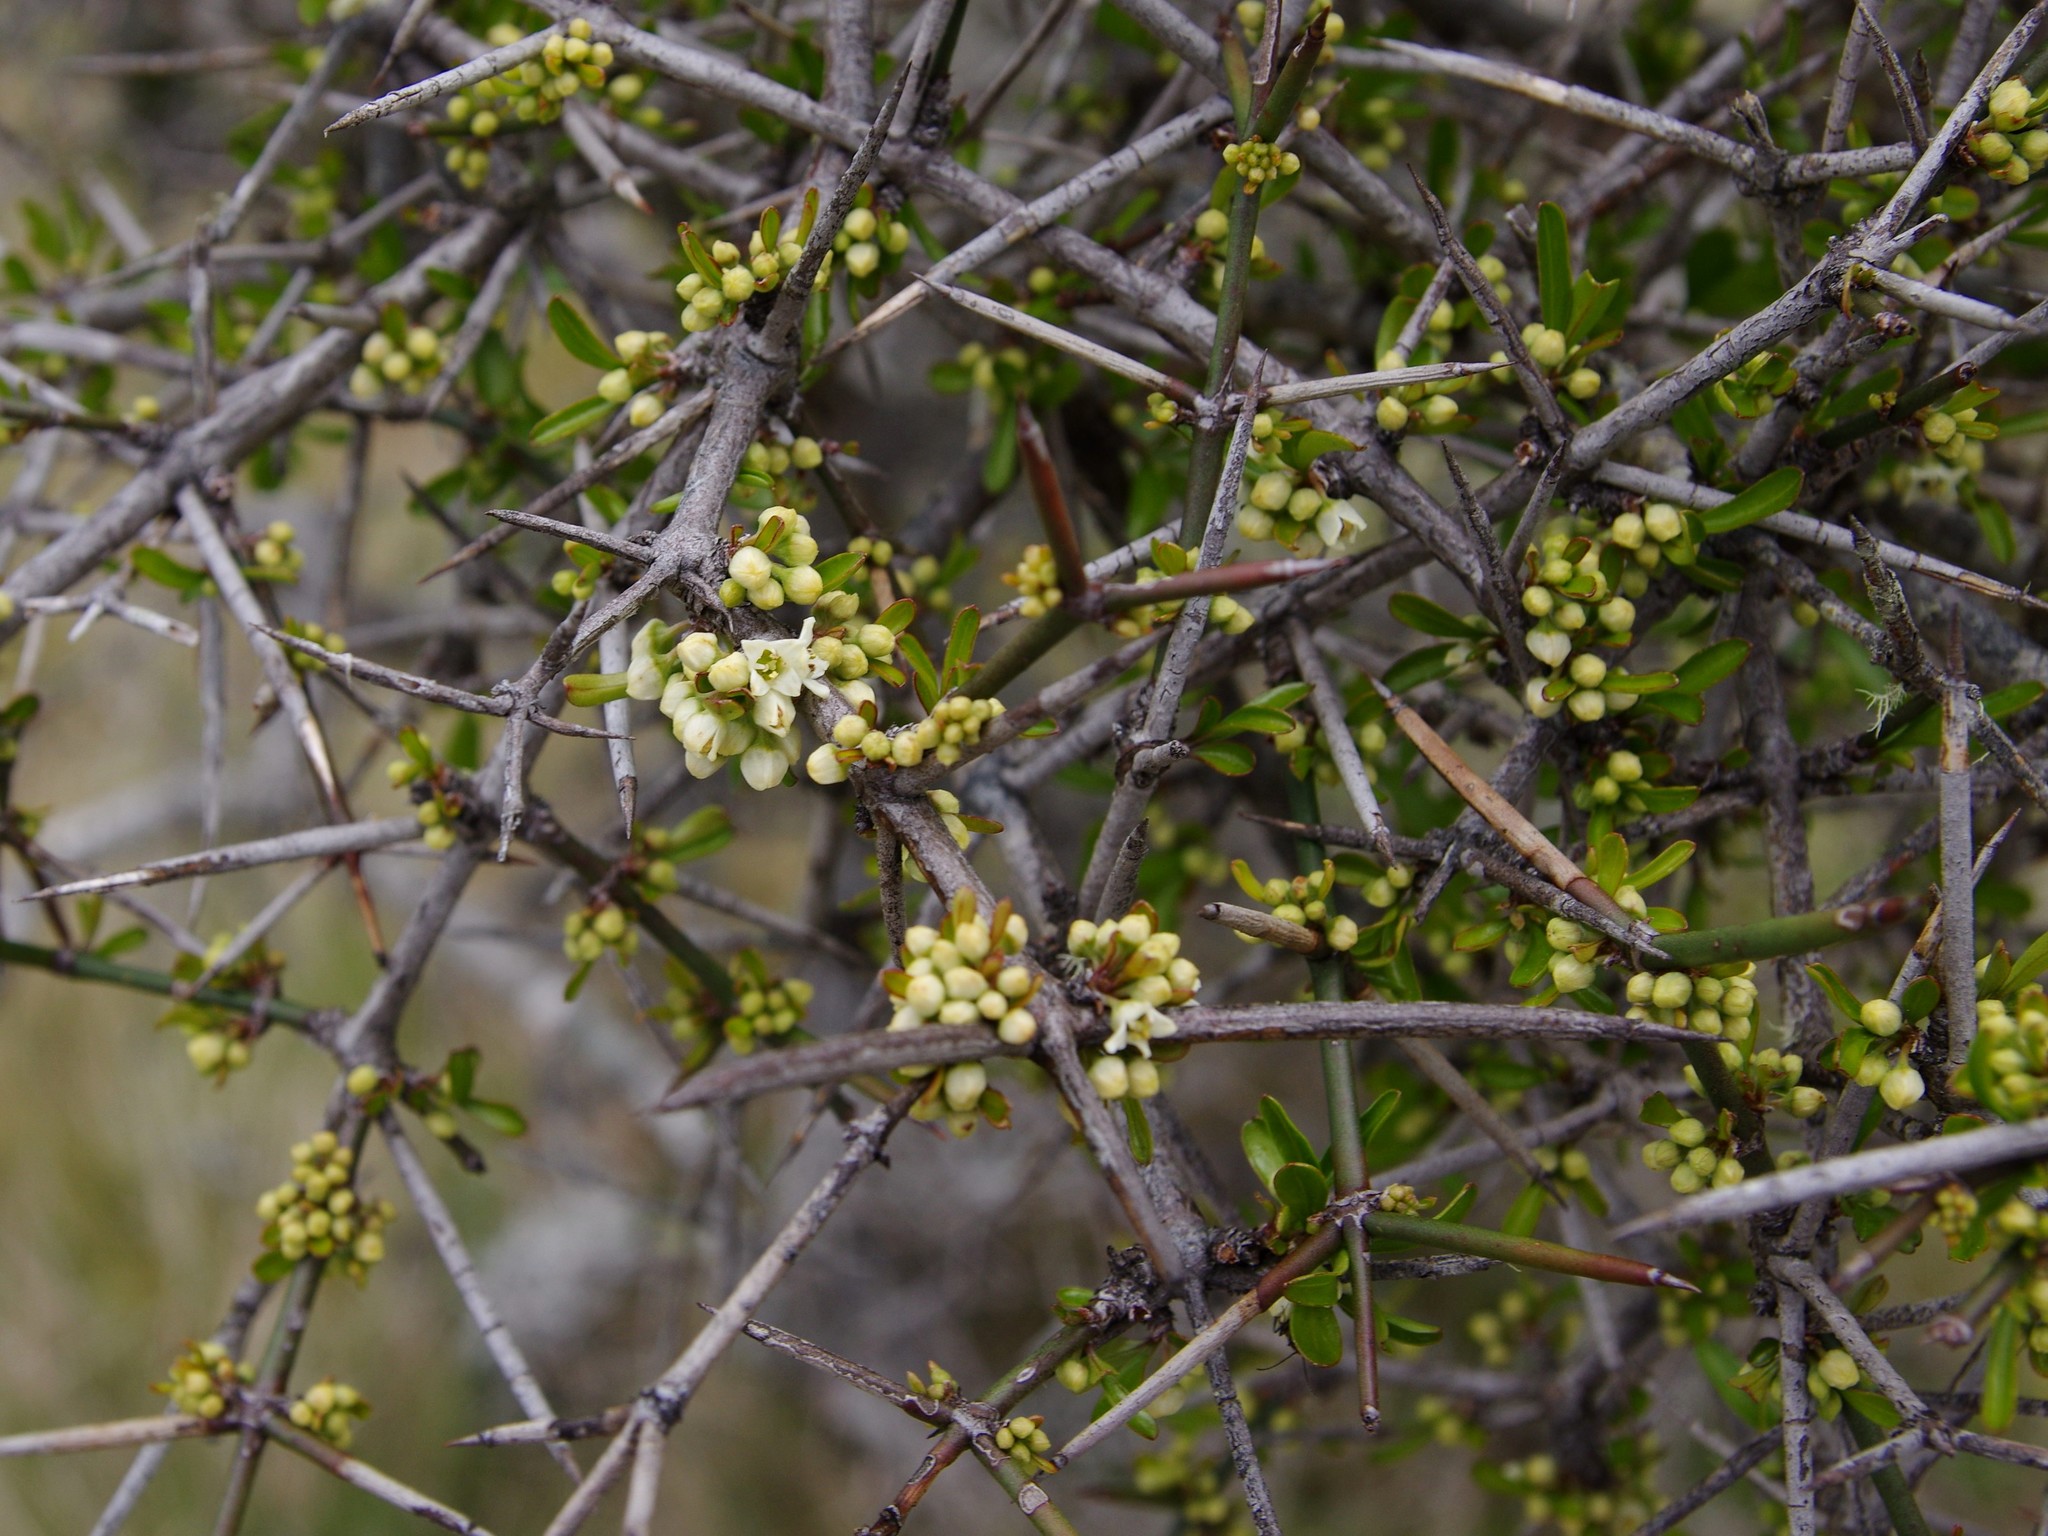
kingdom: Plantae
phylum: Tracheophyta
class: Magnoliopsida
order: Rosales
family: Rhamnaceae
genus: Discaria
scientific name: Discaria toumatou
